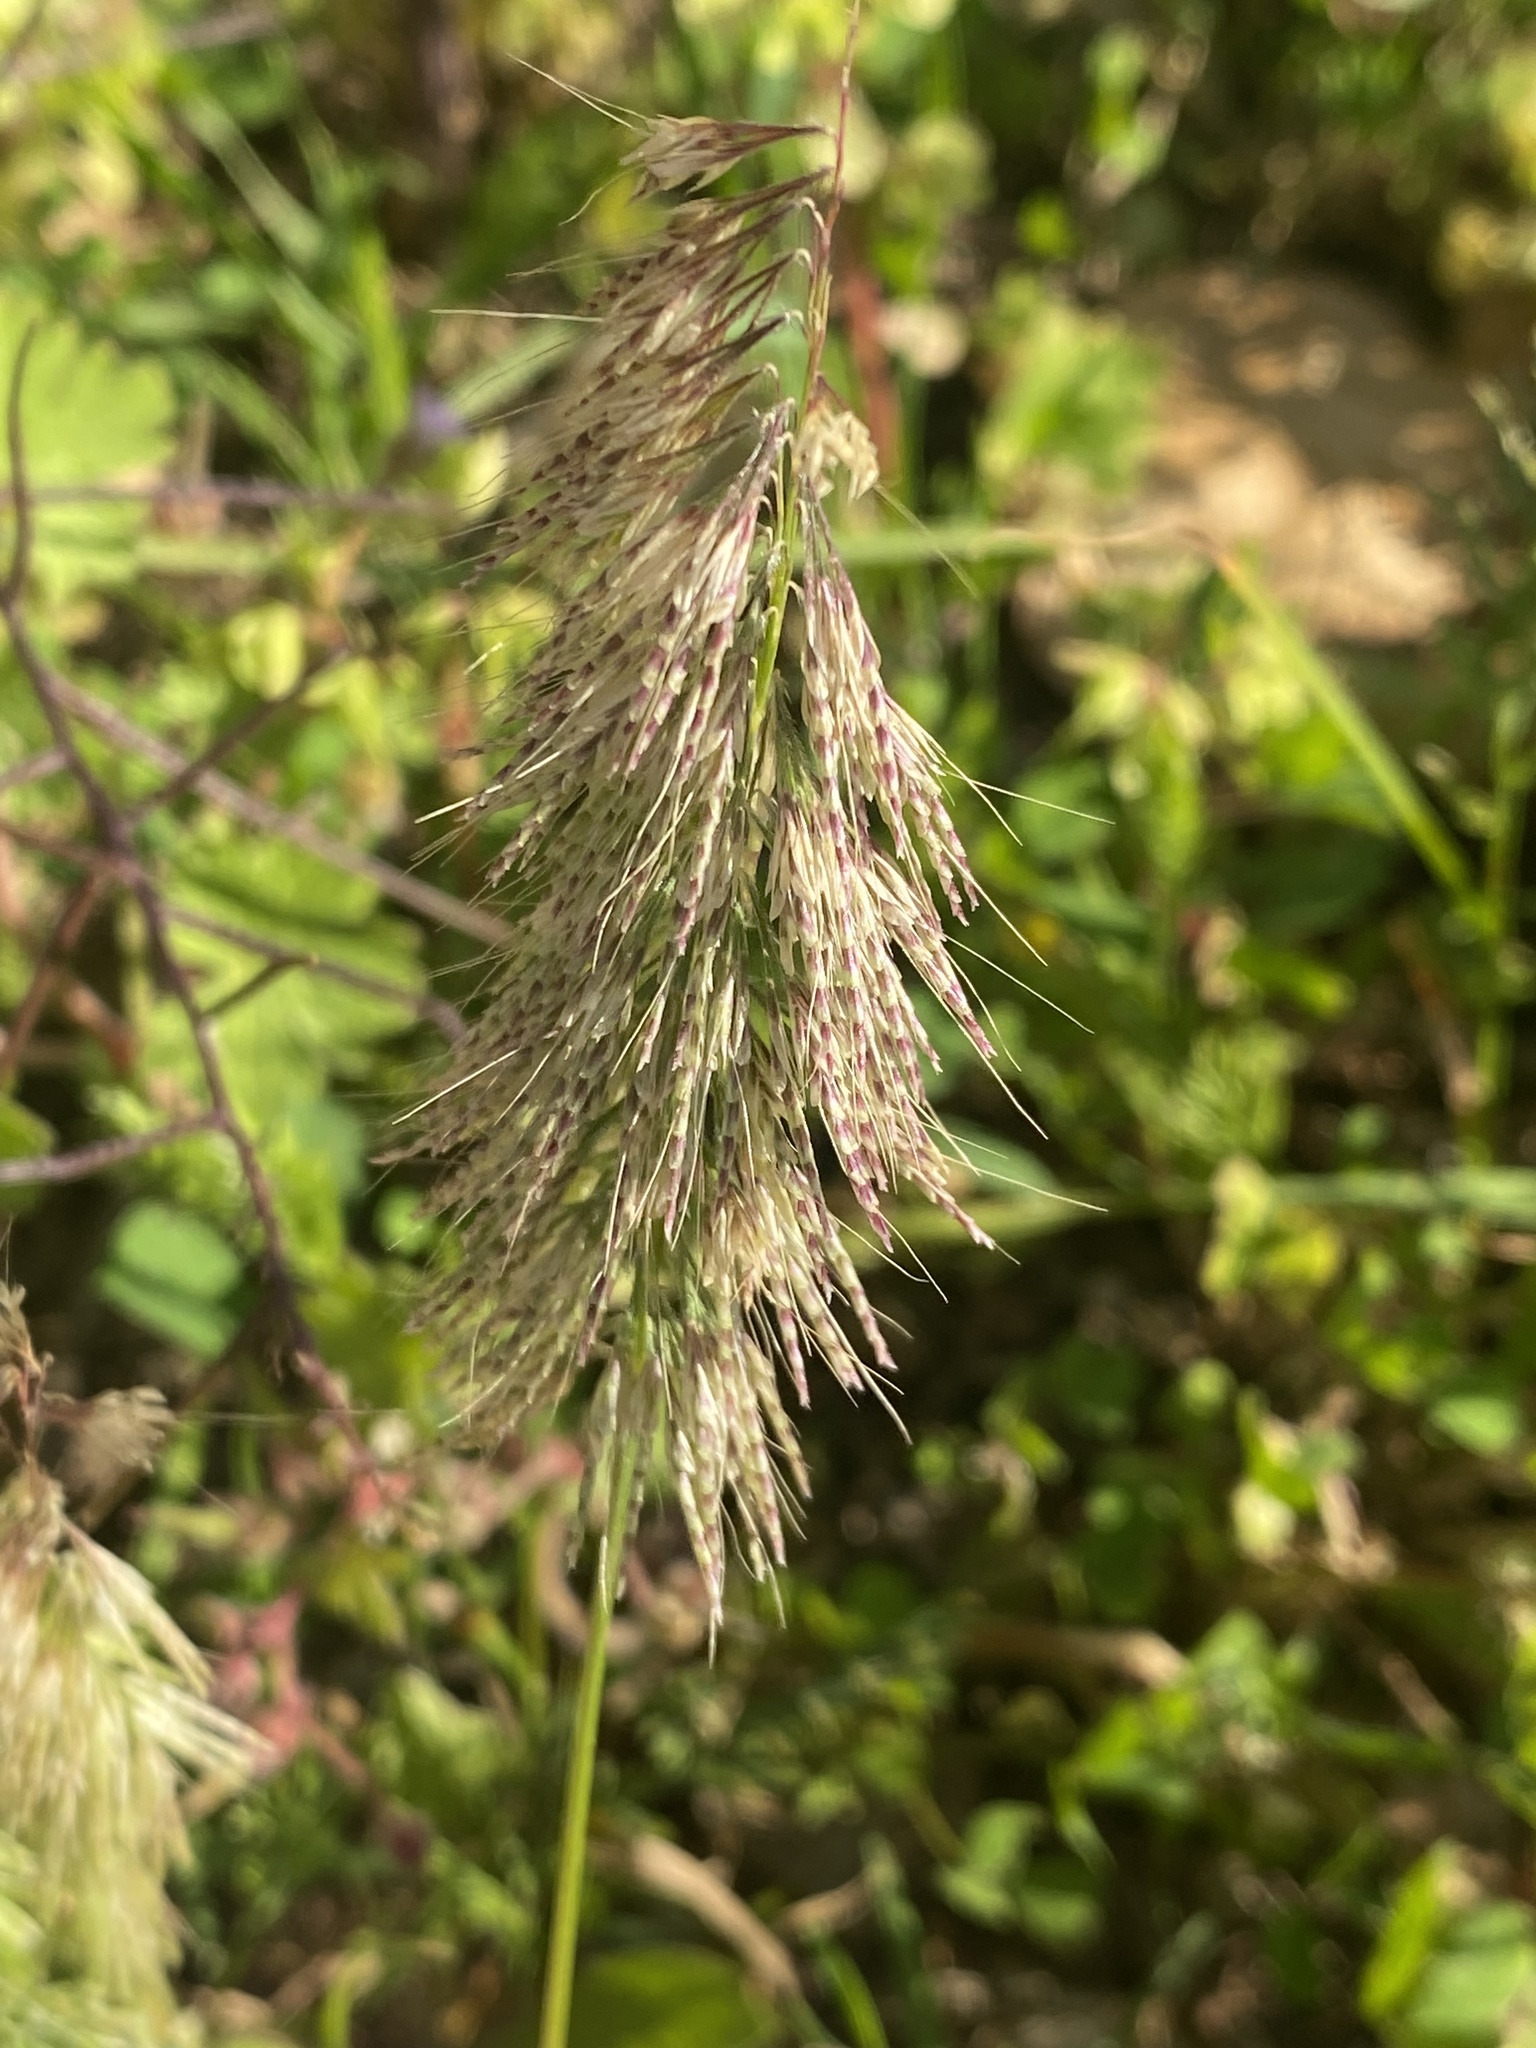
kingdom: Plantae
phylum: Tracheophyta
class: Liliopsida
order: Poales
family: Poaceae
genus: Lamarckia
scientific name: Lamarckia aurea
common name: Golden dog's-tail
